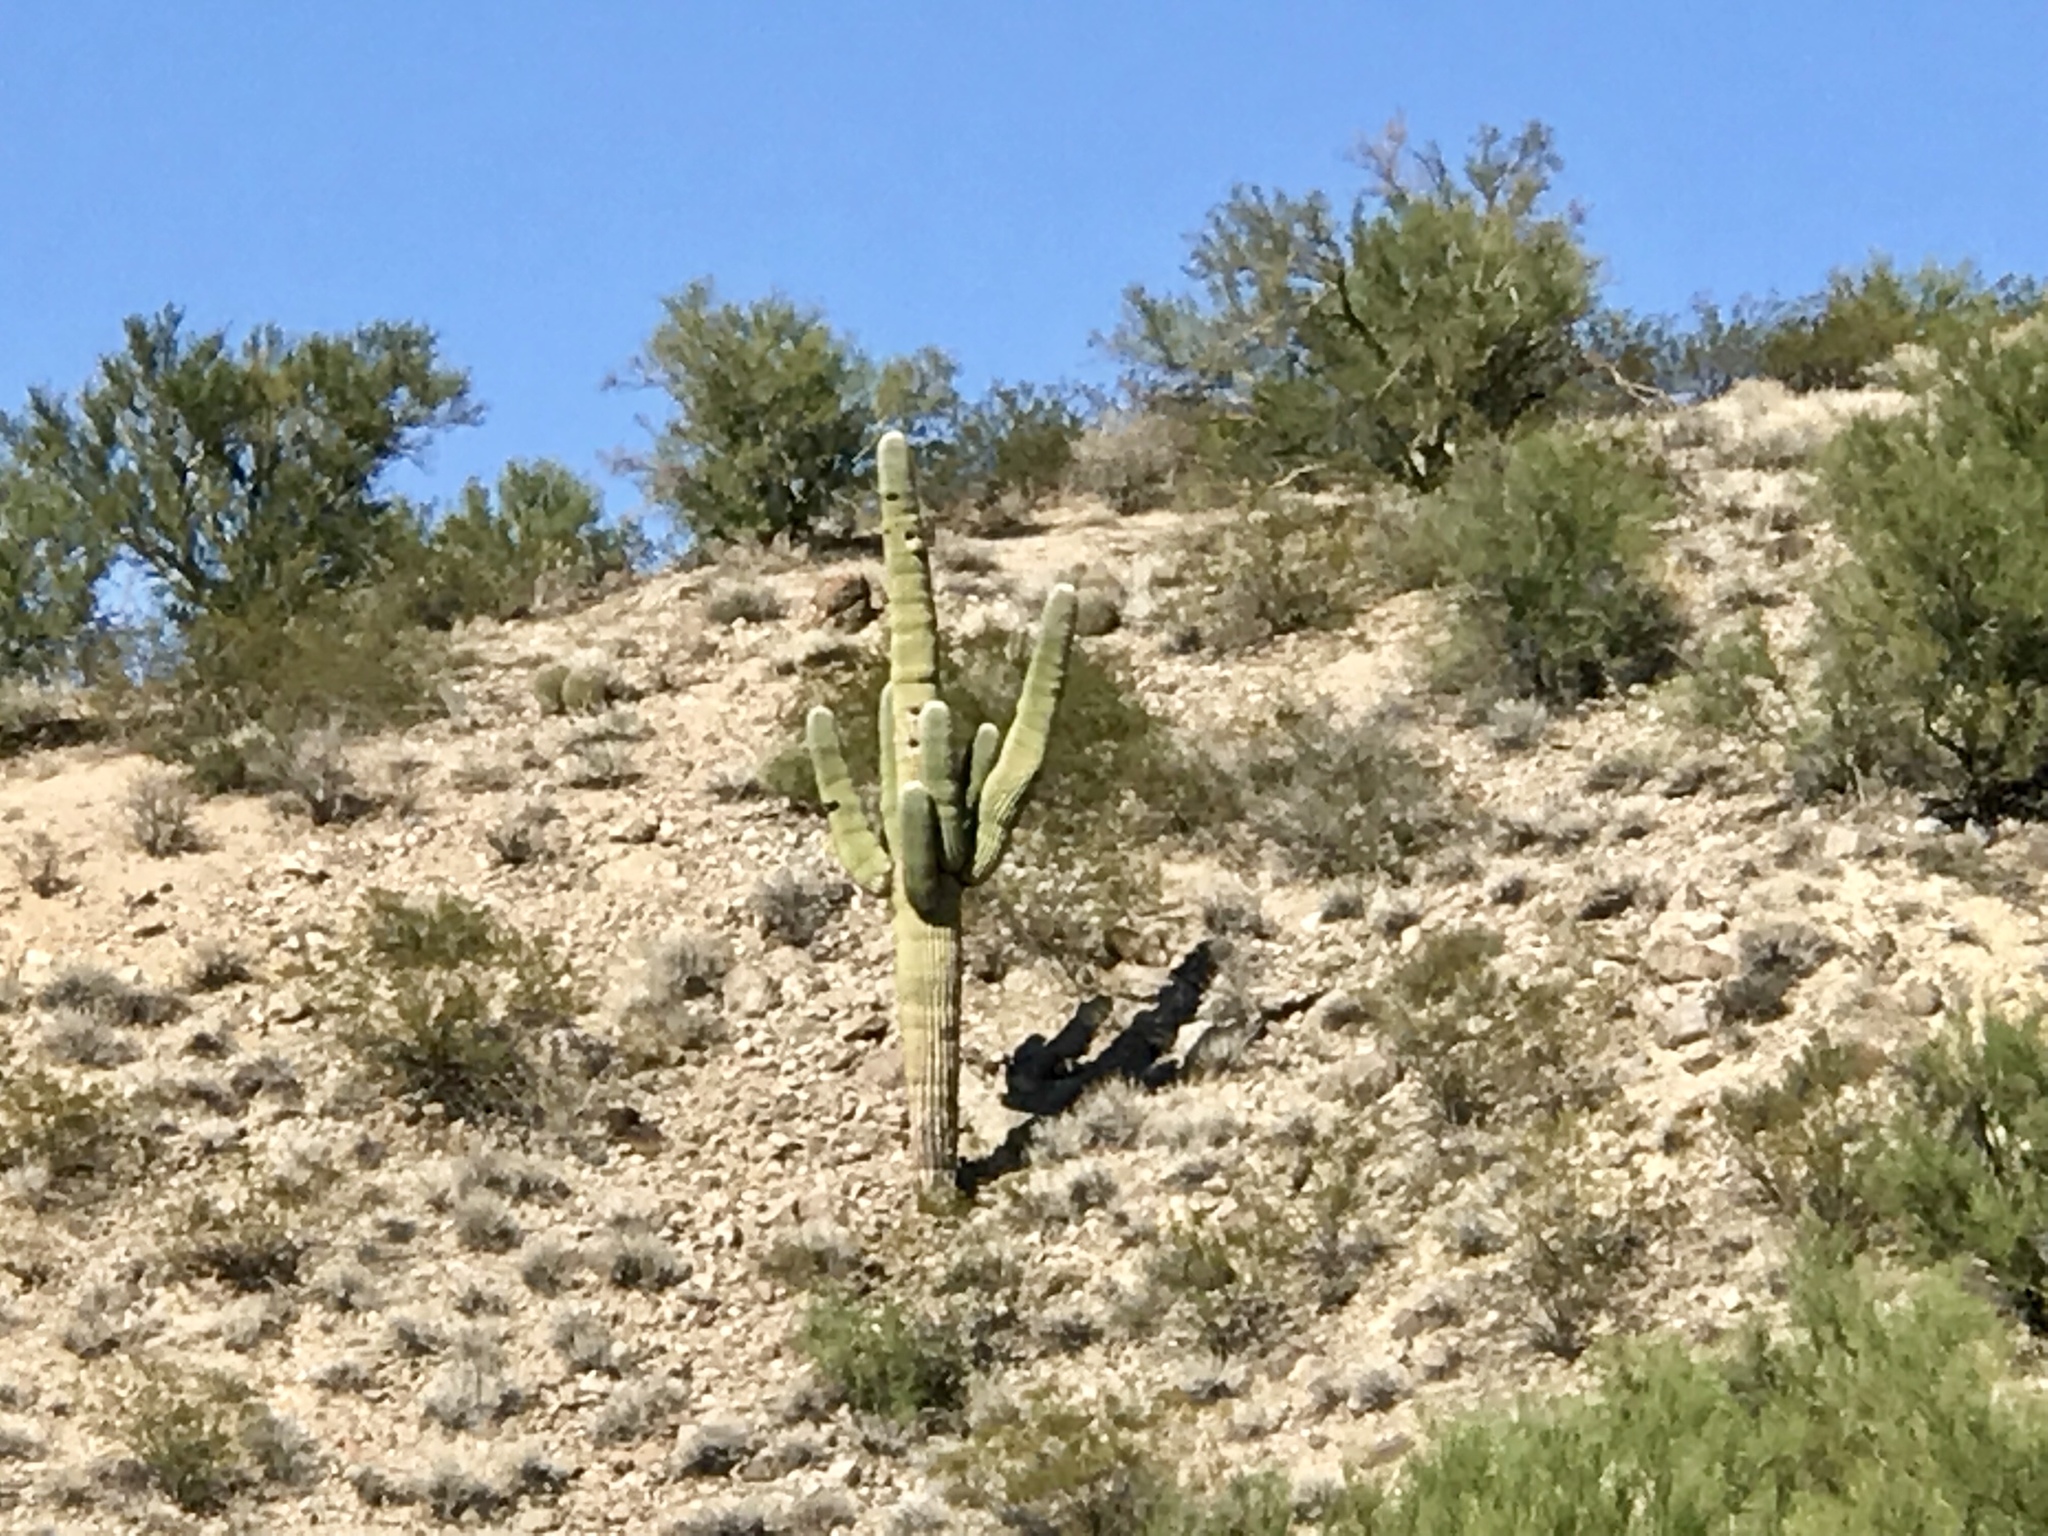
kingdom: Plantae
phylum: Tracheophyta
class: Magnoliopsida
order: Caryophyllales
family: Cactaceae
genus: Carnegiea
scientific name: Carnegiea gigantea
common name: Saguaro
